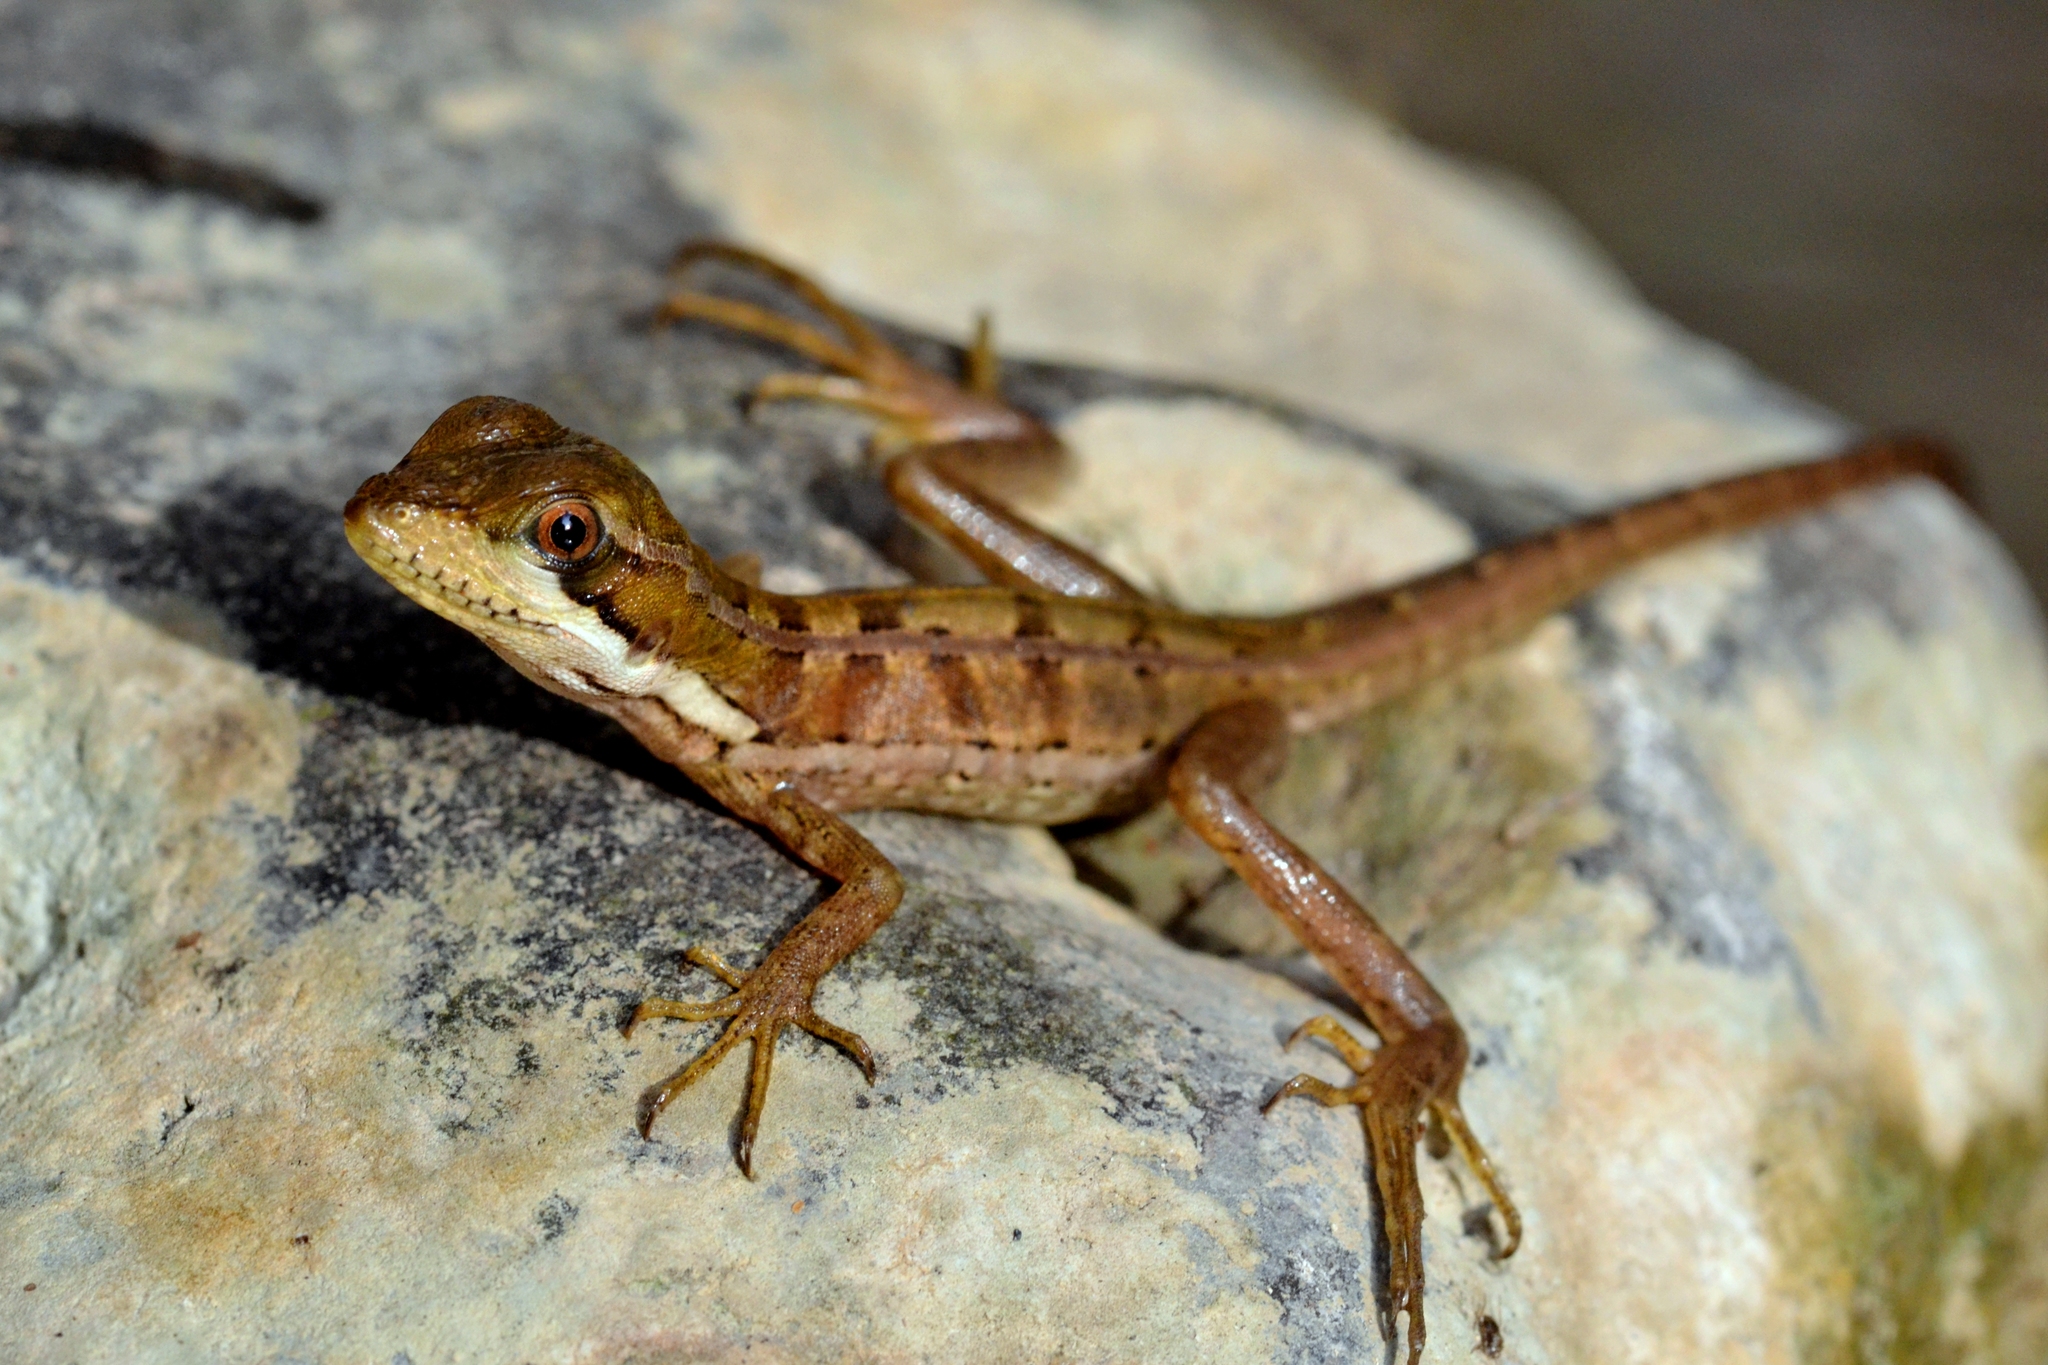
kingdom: Animalia
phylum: Chordata
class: Squamata
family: Corytophanidae
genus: Basiliscus
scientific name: Basiliscus vittatus
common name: Brown basilisk
